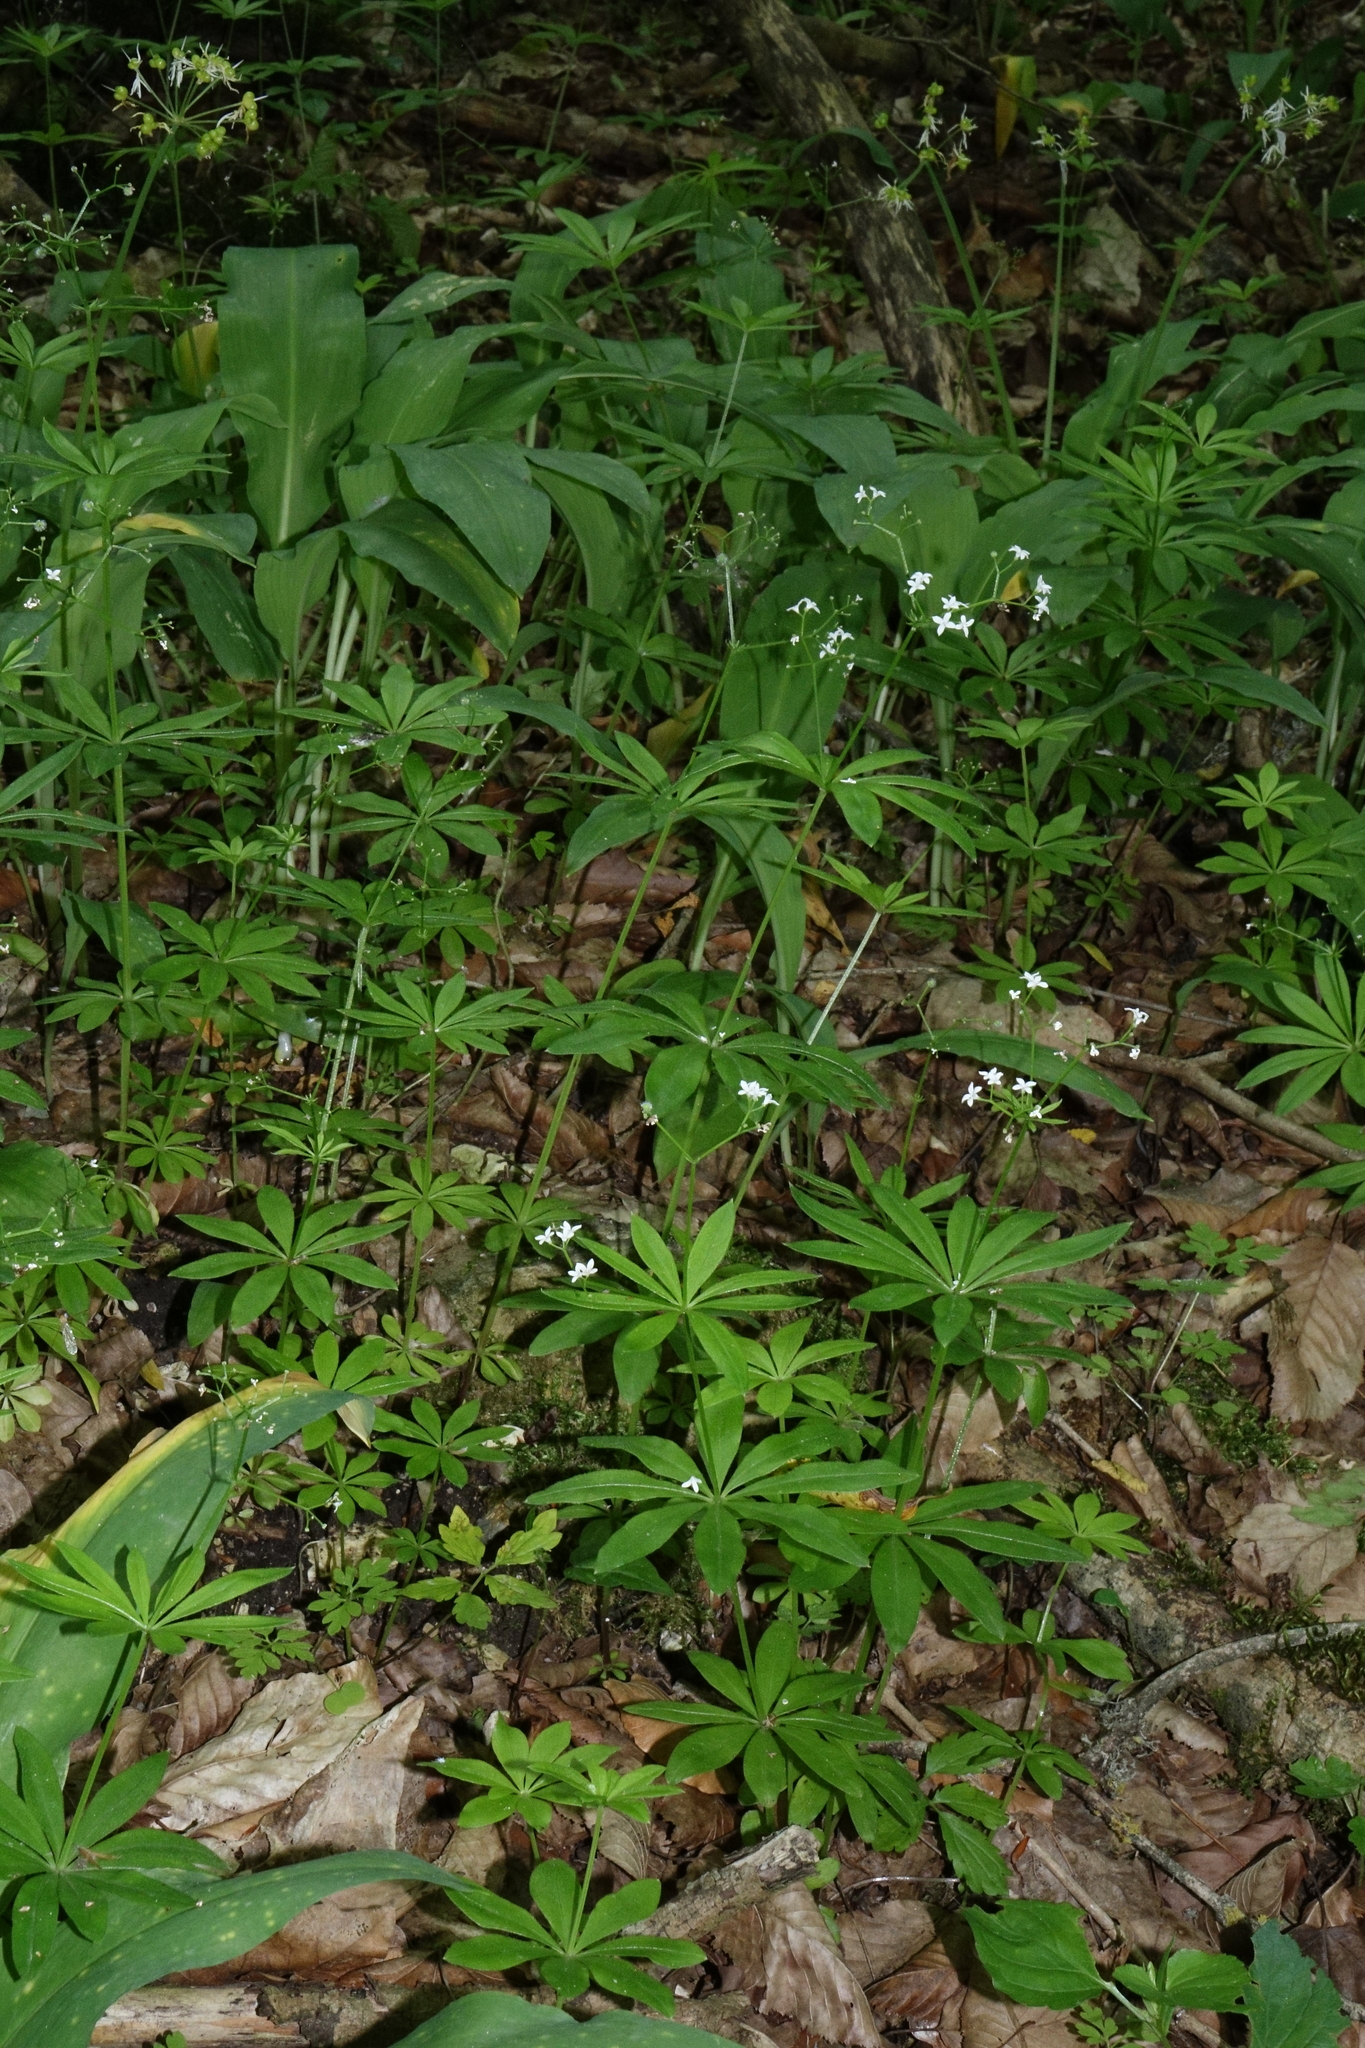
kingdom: Plantae
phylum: Tracheophyta
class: Magnoliopsida
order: Gentianales
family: Rubiaceae
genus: Galium
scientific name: Galium odoratum
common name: Sweet woodruff
